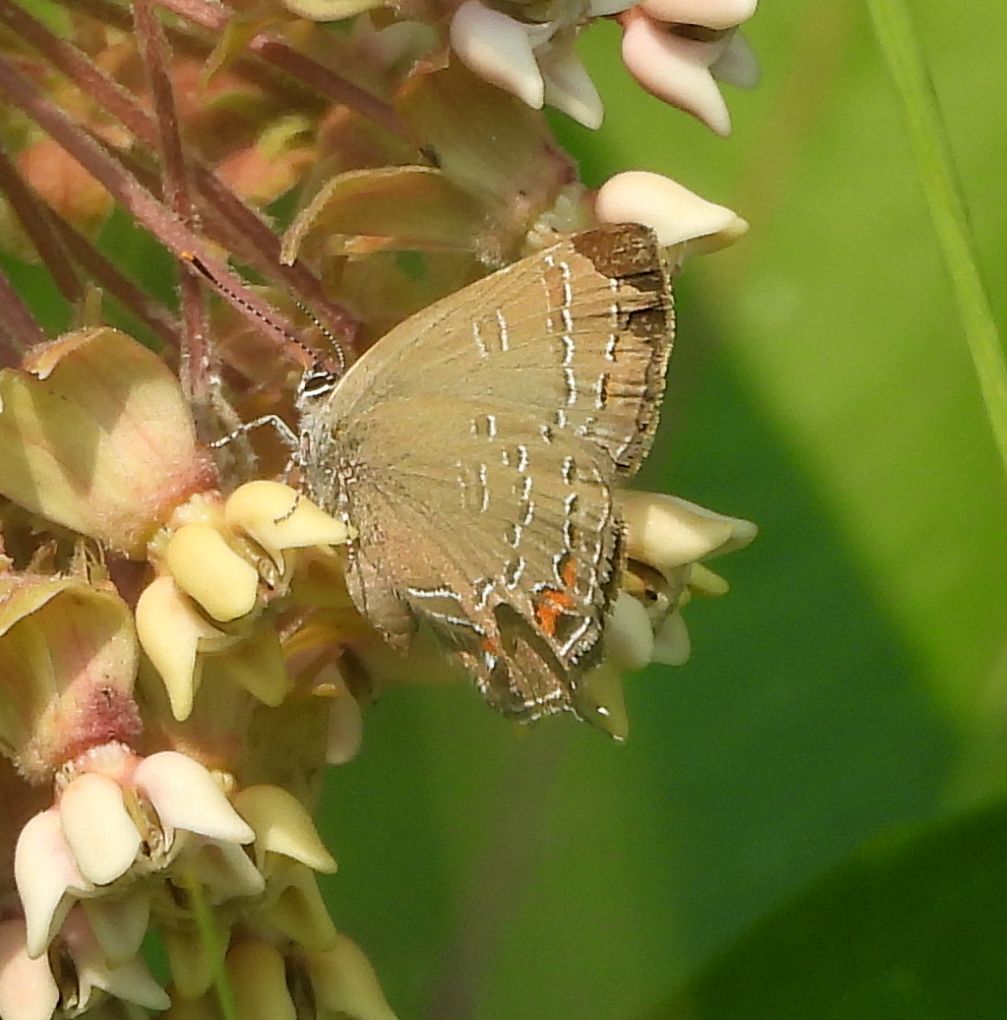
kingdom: Animalia
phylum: Arthropoda
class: Insecta
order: Lepidoptera
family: Lycaenidae
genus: Satyrium
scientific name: Satyrium calanus
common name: Banded hairstreak
